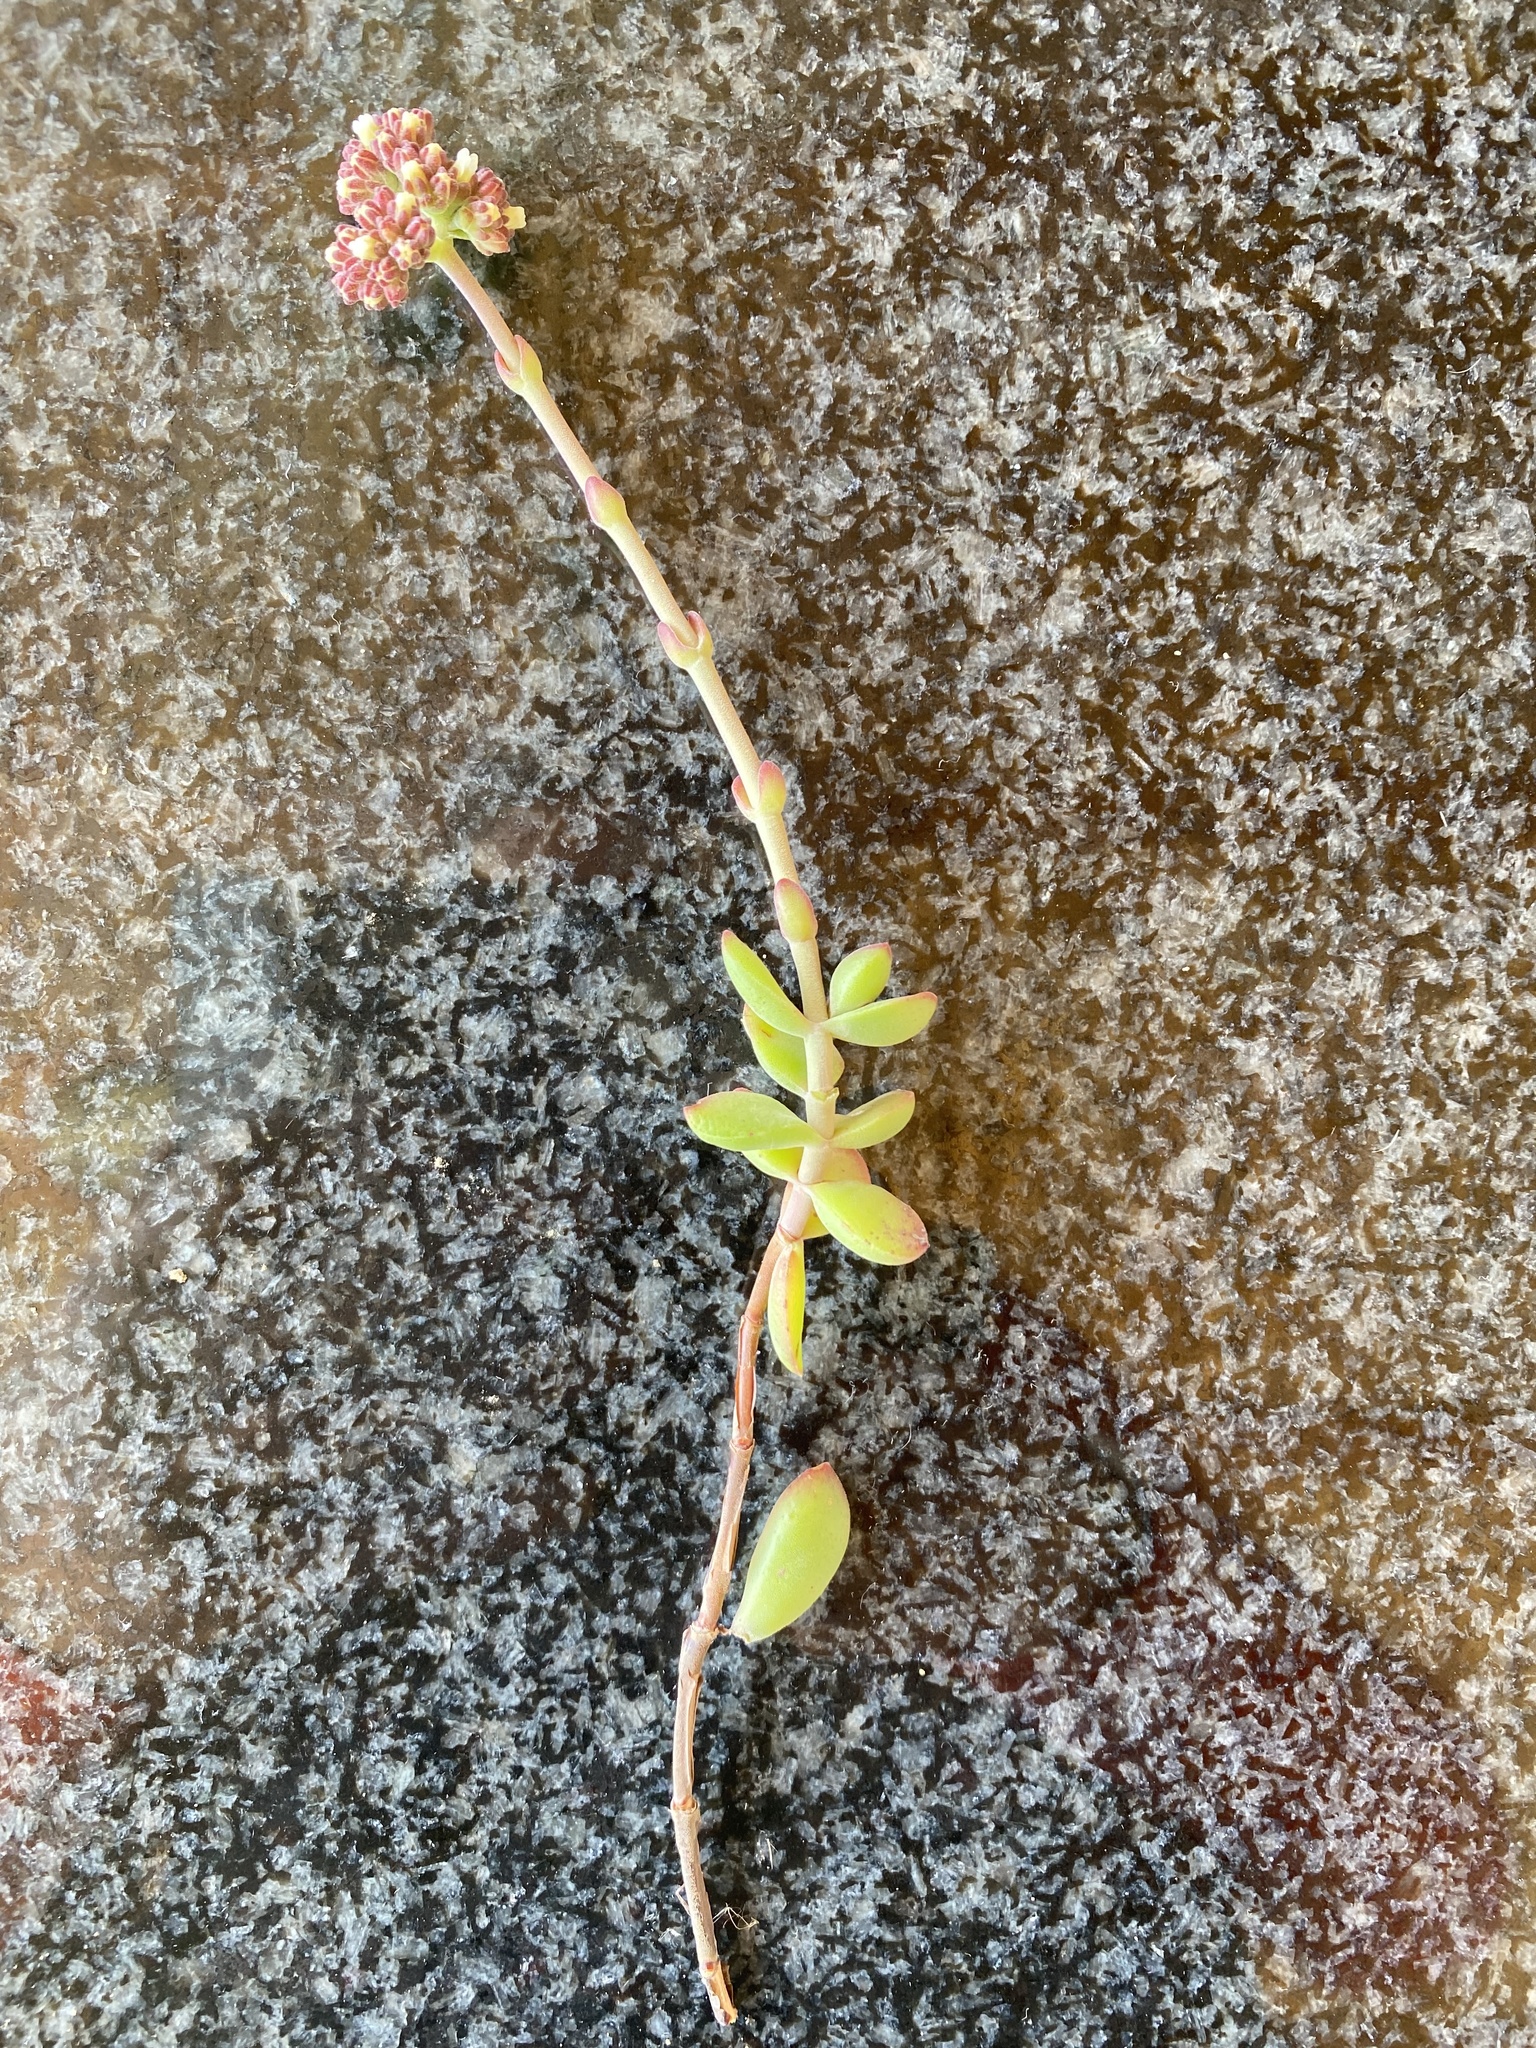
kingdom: Plantae
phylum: Tracheophyta
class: Magnoliopsida
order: Saxifragales
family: Crassulaceae
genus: Crassula
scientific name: Crassula pubescens
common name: Jersey pigmyweed
